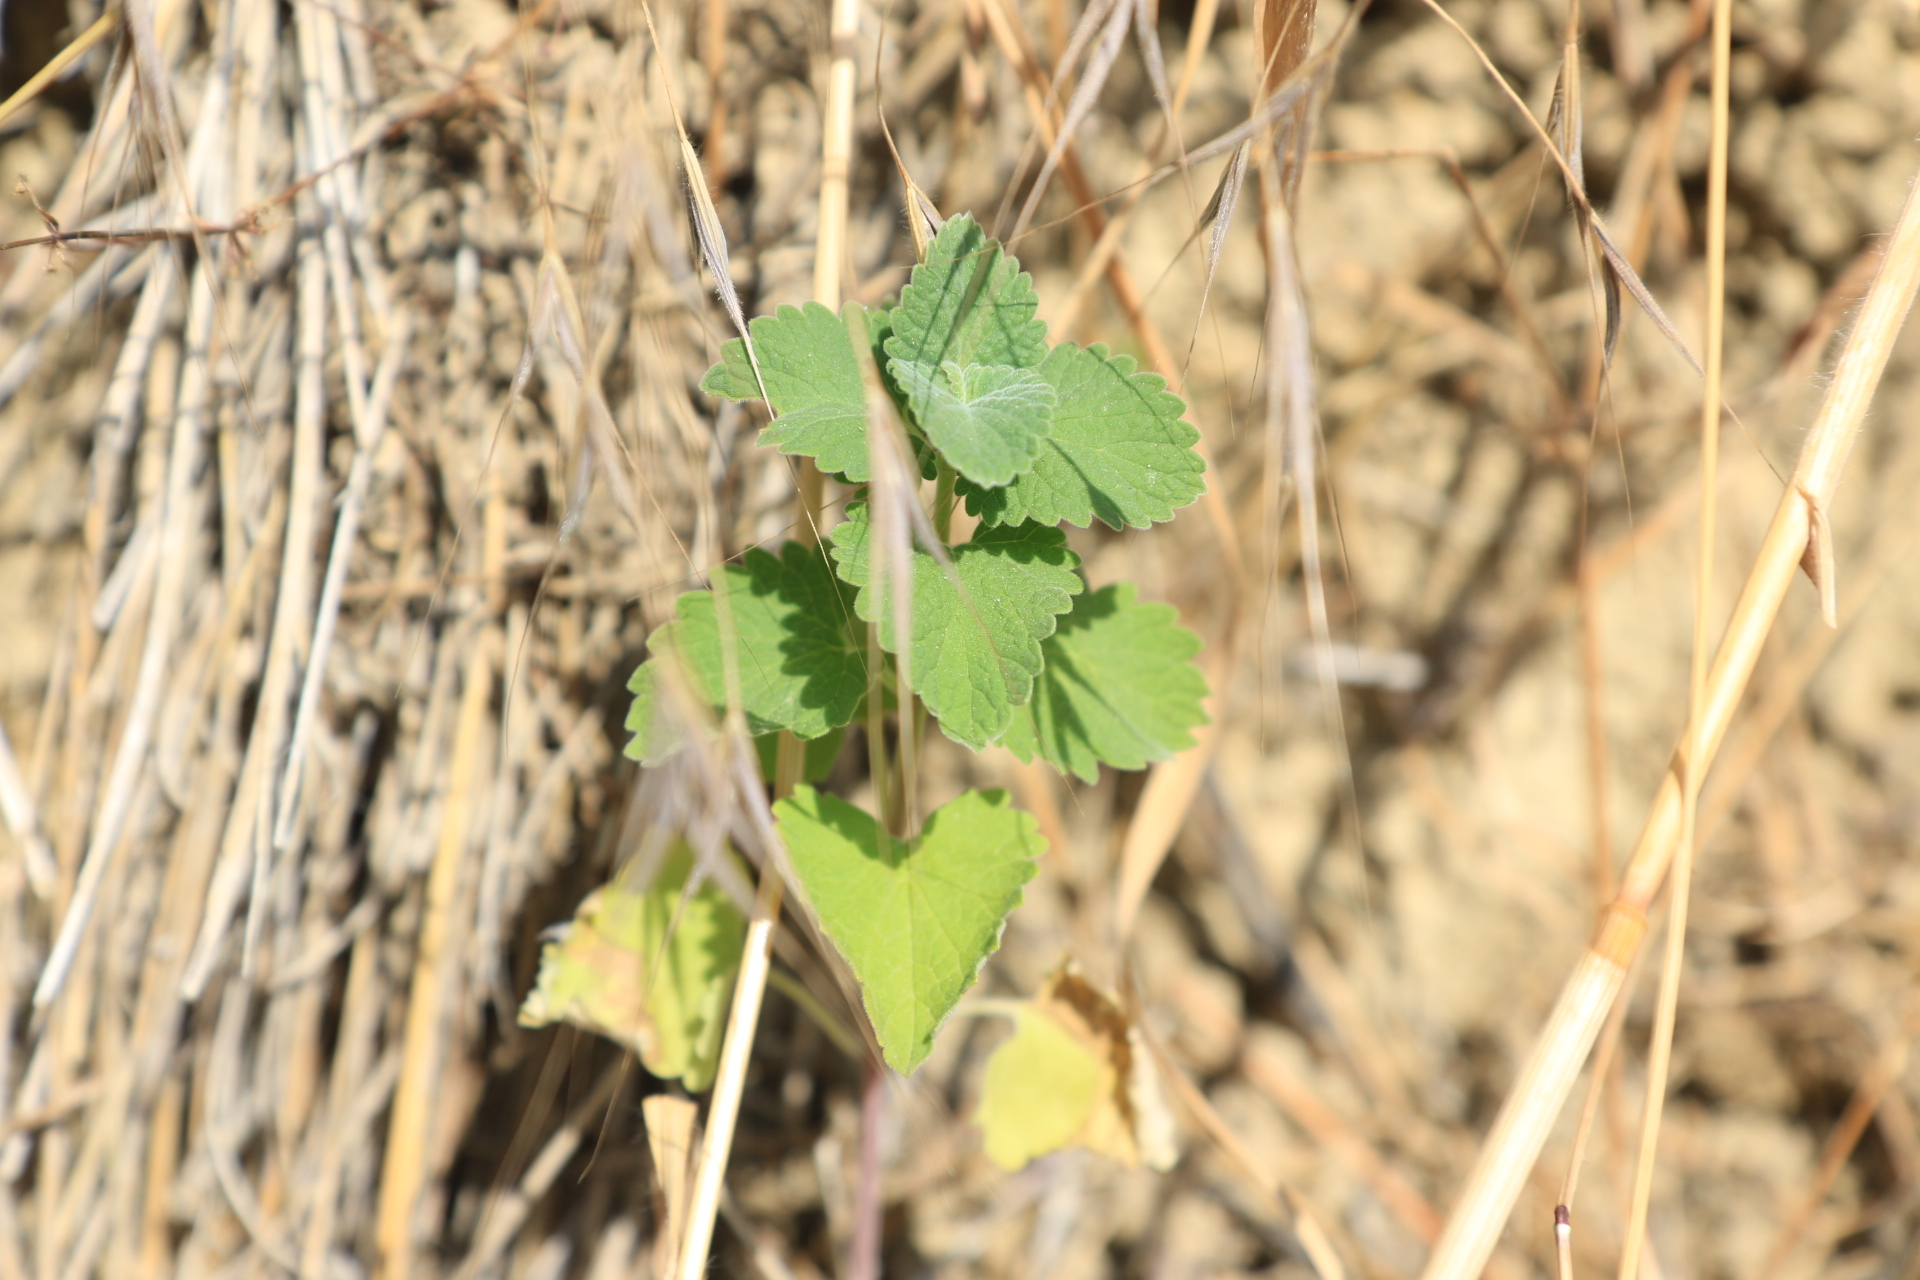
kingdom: Plantae
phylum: Tracheophyta
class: Magnoliopsida
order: Lamiales
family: Lamiaceae
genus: Nepeta
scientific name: Nepeta cataria
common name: Catnip
